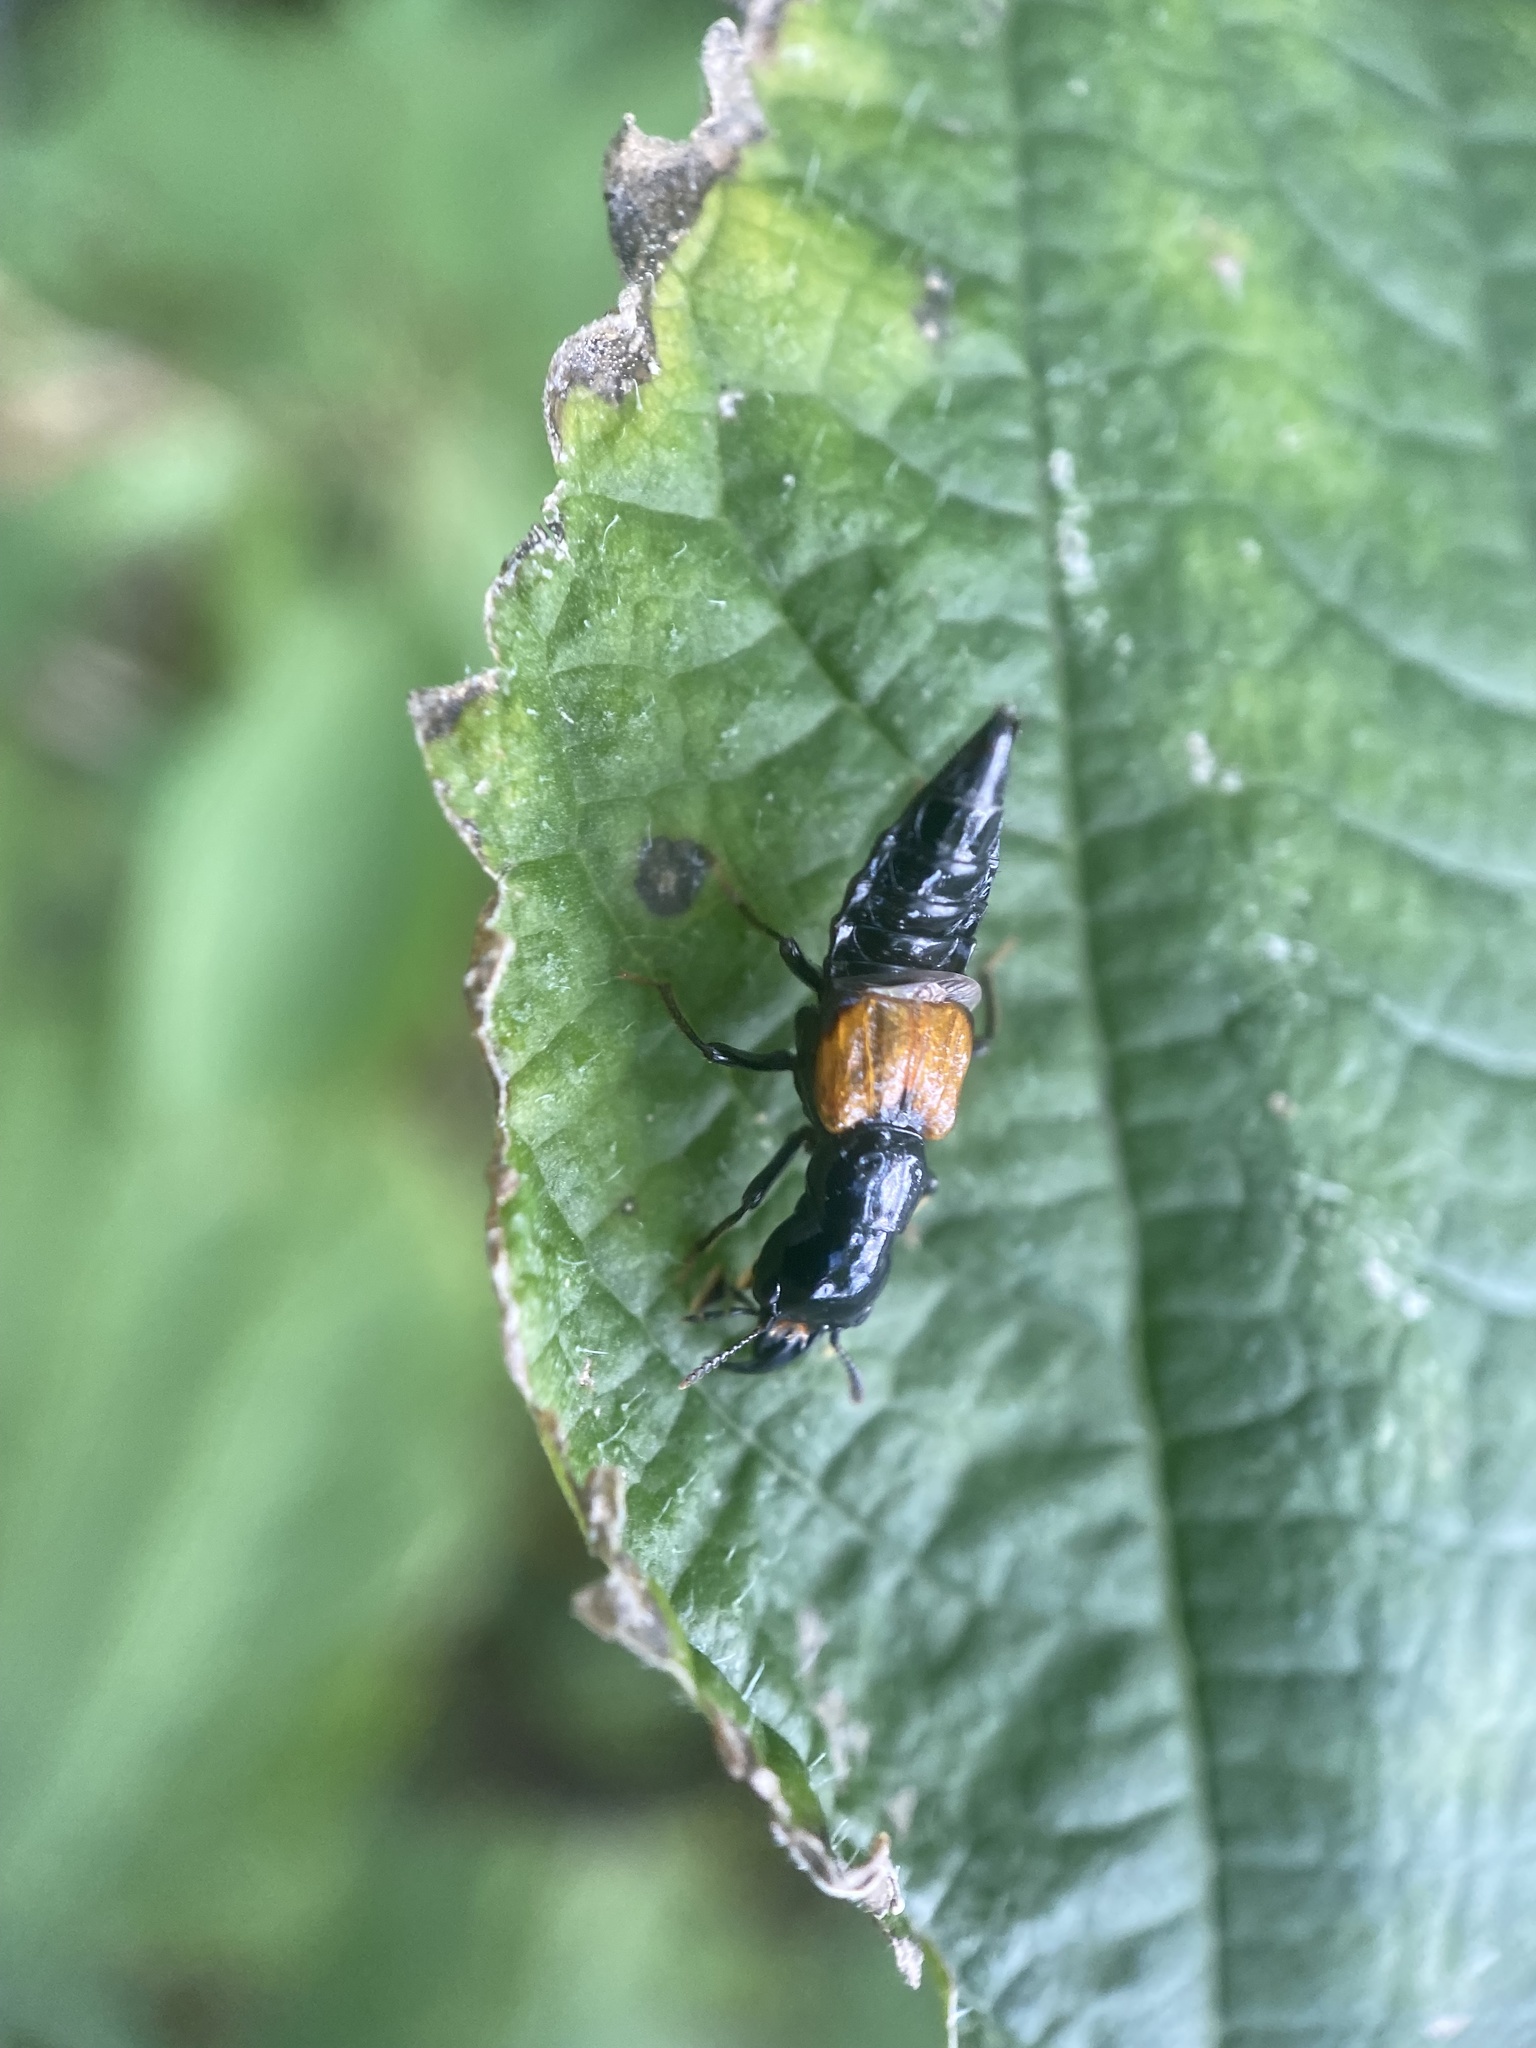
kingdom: Animalia
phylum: Arthropoda
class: Insecta
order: Coleoptera
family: Staphylinidae
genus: Oxyporus
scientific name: Oxyporus rufipennis
